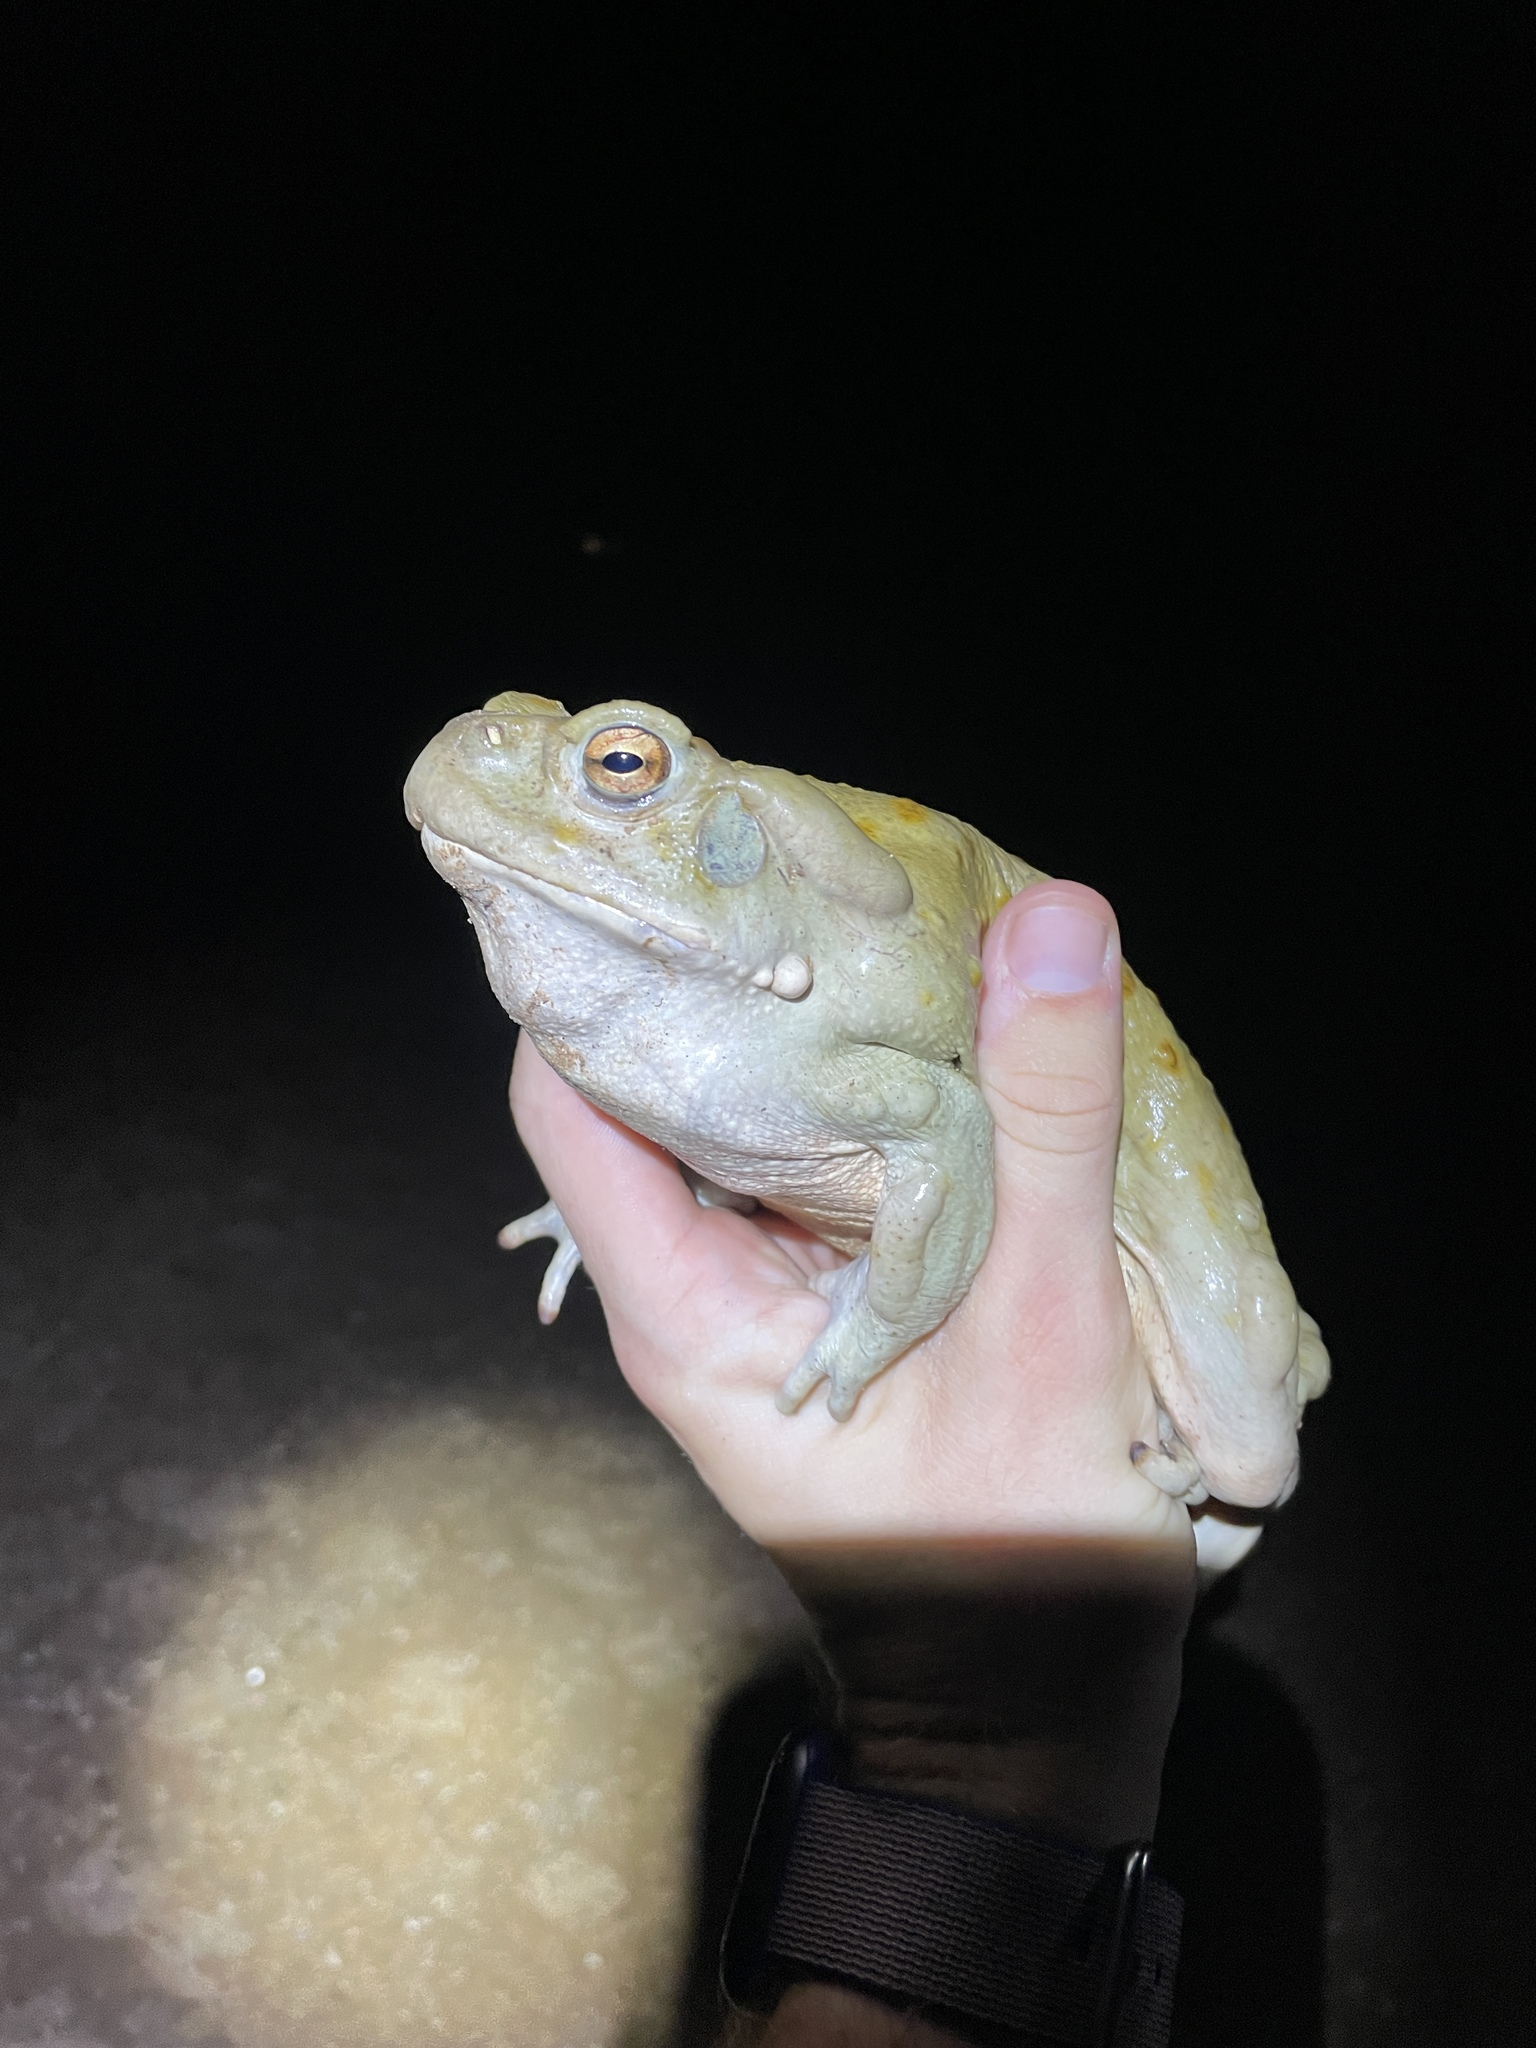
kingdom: Animalia
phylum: Chordata
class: Amphibia
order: Anura
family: Bufonidae
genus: Incilius
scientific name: Incilius alvarius
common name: Sonoran desert toad
